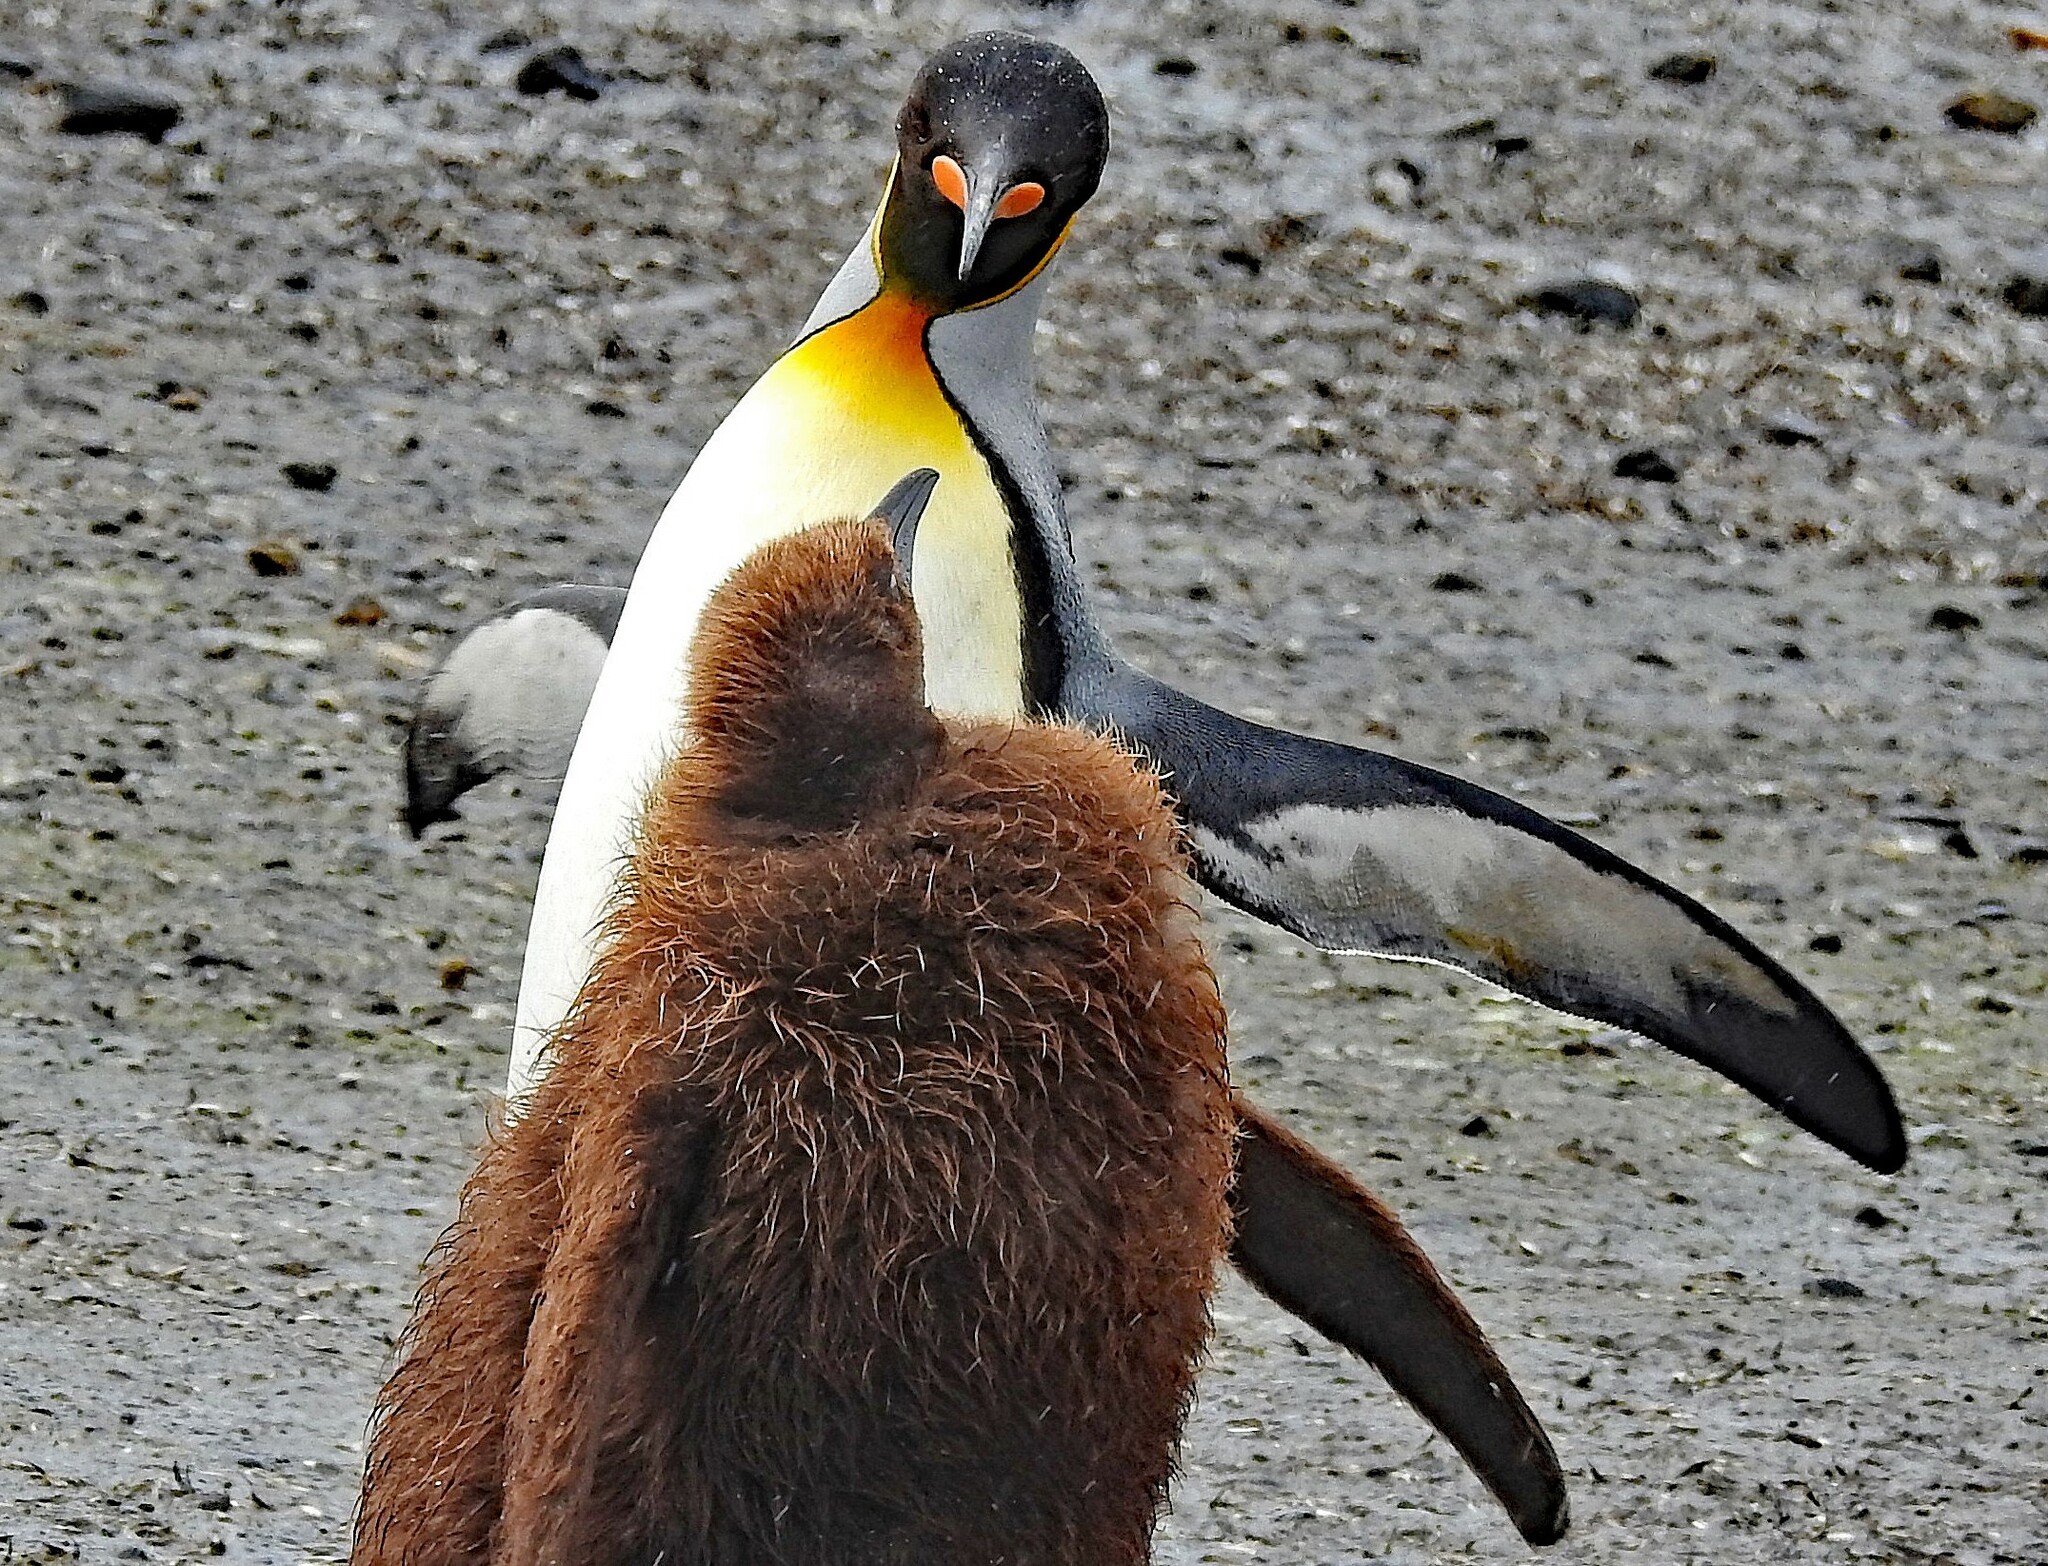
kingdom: Animalia
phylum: Chordata
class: Aves
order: Sphenisciformes
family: Spheniscidae
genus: Aptenodytes
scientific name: Aptenodytes patagonicus
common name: King penguin
